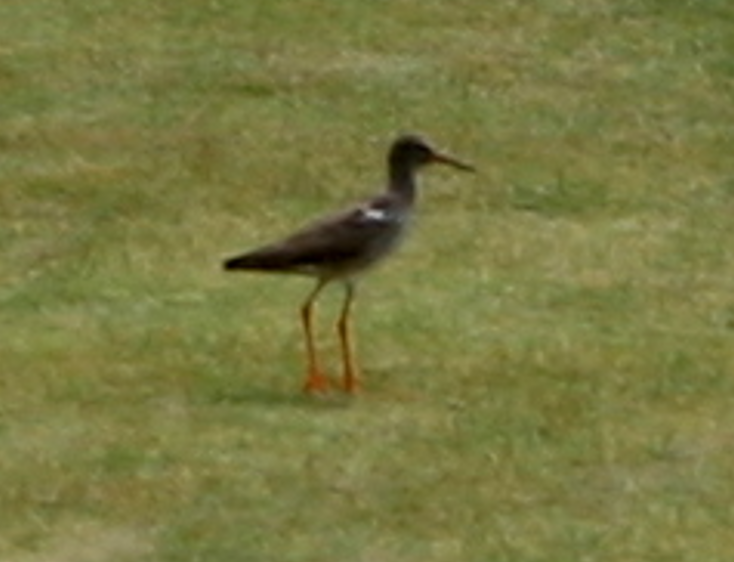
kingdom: Animalia
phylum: Chordata
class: Aves
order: Charadriiformes
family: Scolopacidae
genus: Tringa
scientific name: Tringa totanus
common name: Common redshank
